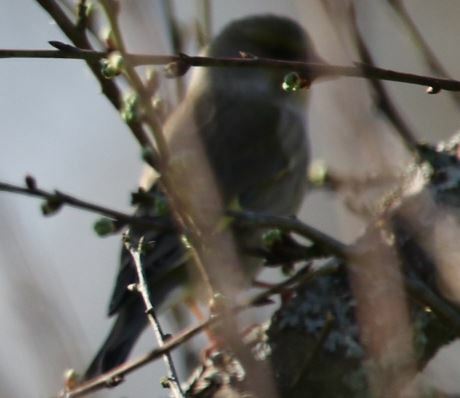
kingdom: Plantae
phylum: Tracheophyta
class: Liliopsida
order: Poales
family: Poaceae
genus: Chloris
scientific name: Chloris chloris
